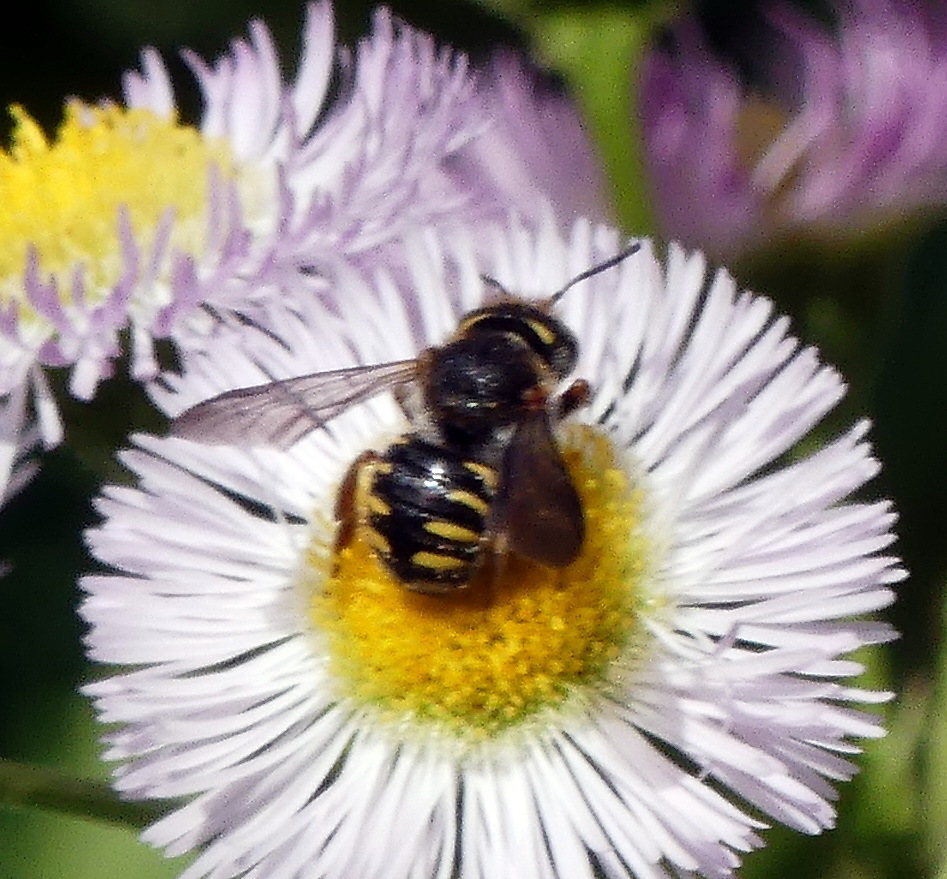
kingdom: Animalia
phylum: Arthropoda
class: Insecta
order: Hymenoptera
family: Megachilidae
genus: Anthidium
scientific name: Anthidium oblongatum
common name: Oblong wool carder bee
